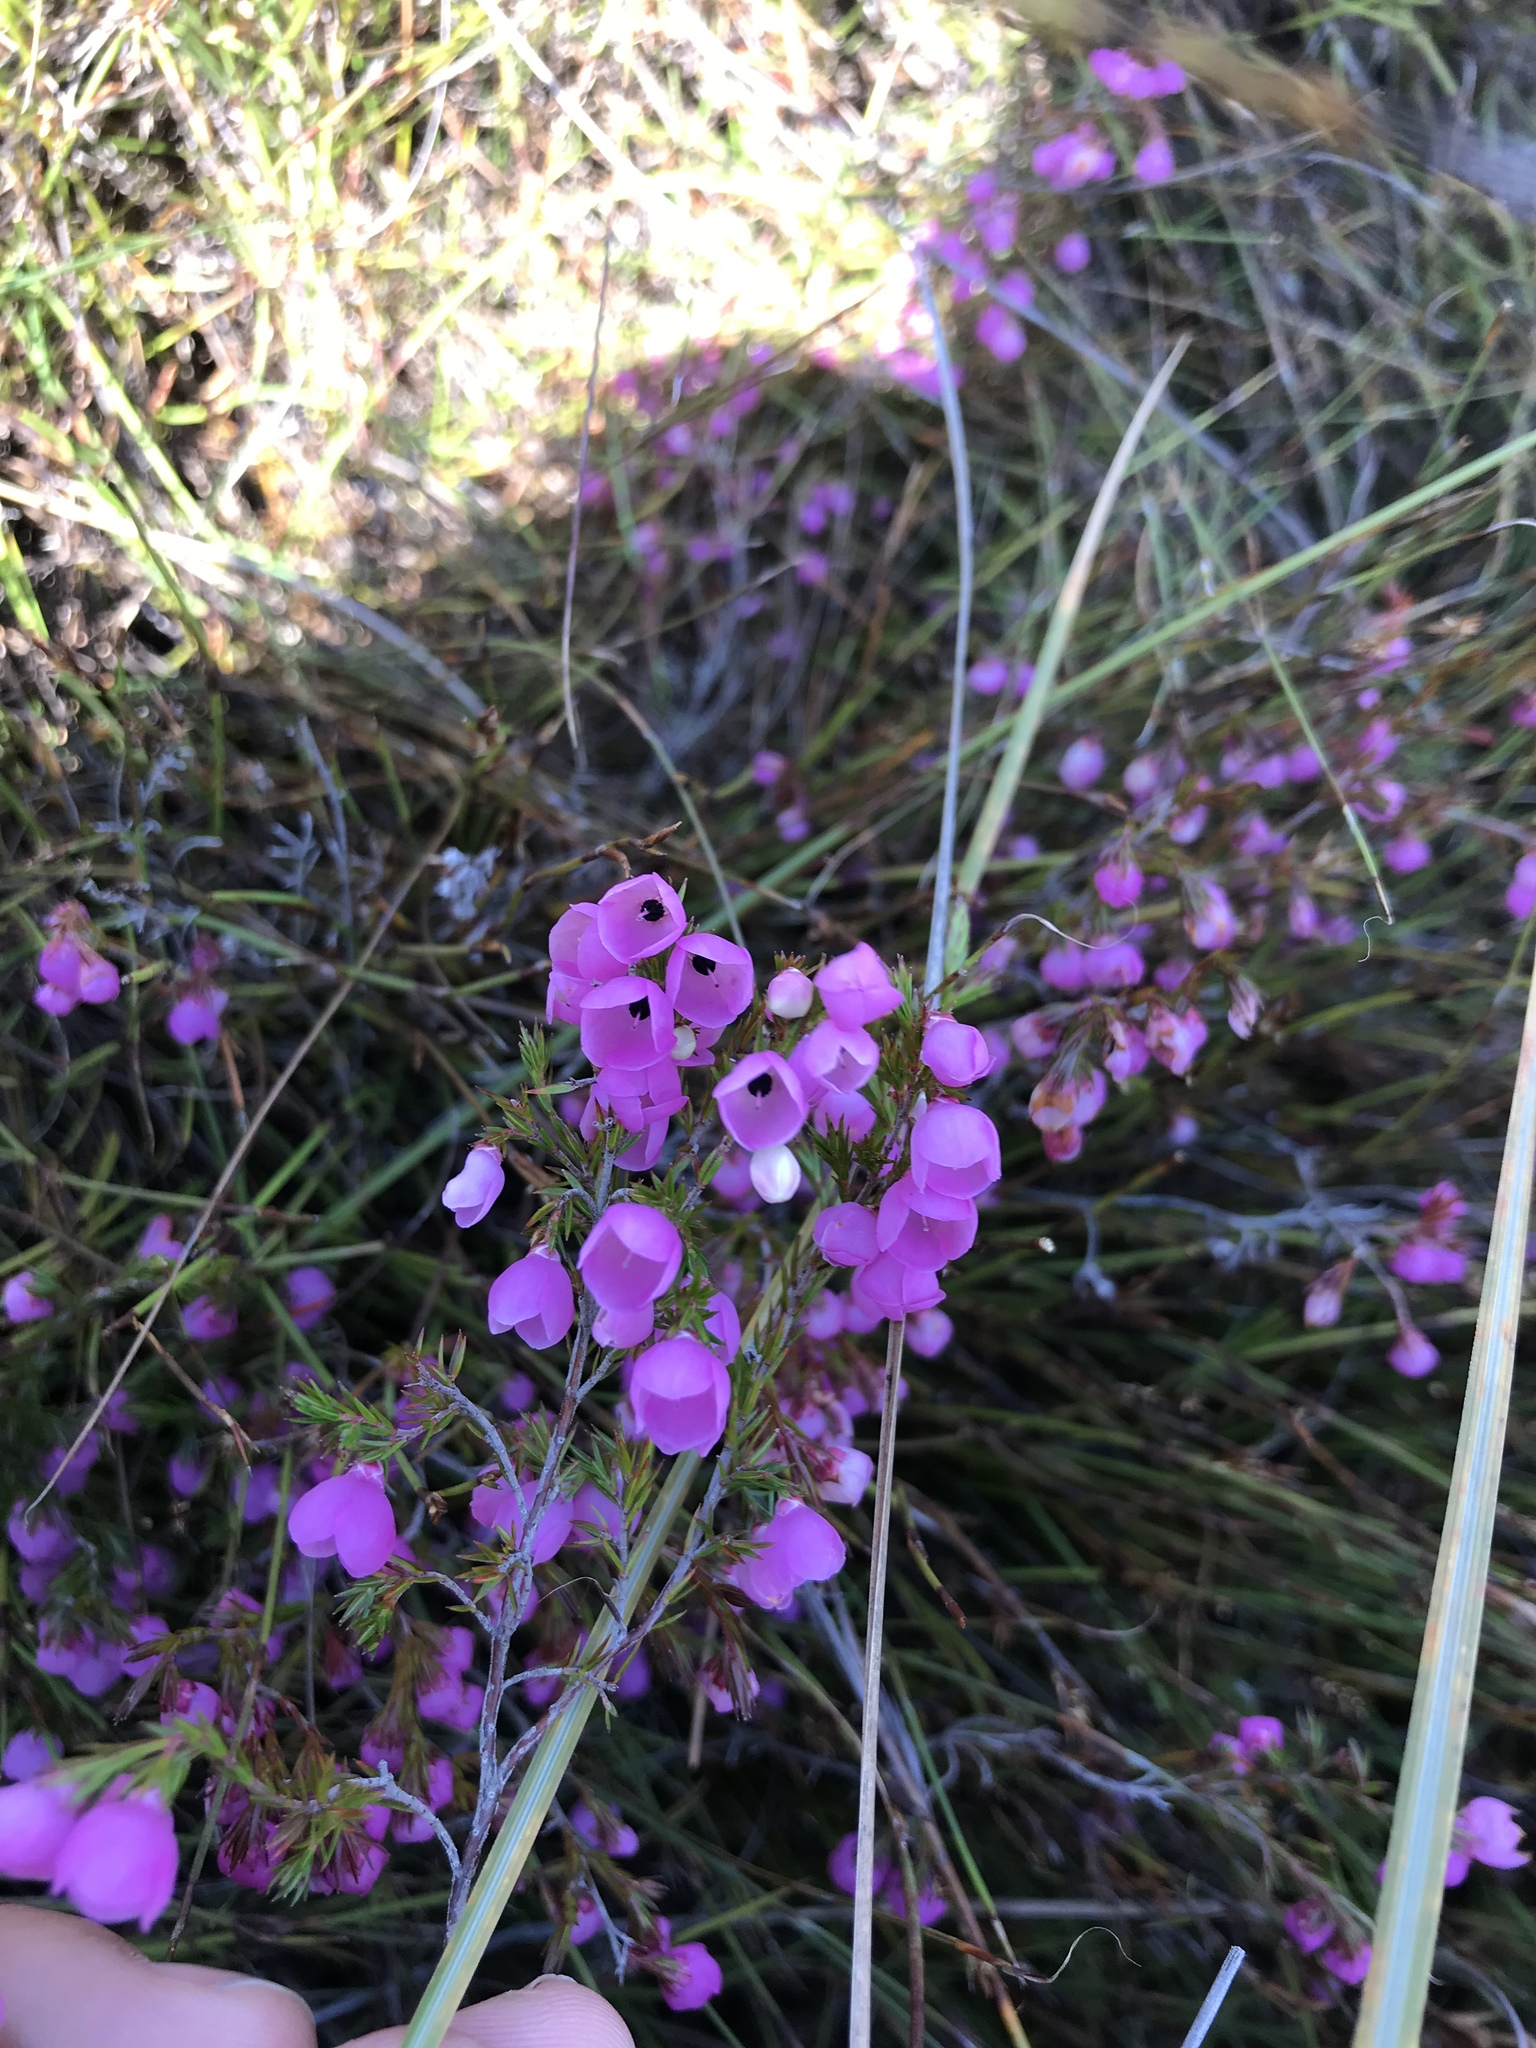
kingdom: Plantae
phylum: Tracheophyta
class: Magnoliopsida
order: Ericales
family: Ericaceae
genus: Erica
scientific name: Erica pauciovulata
